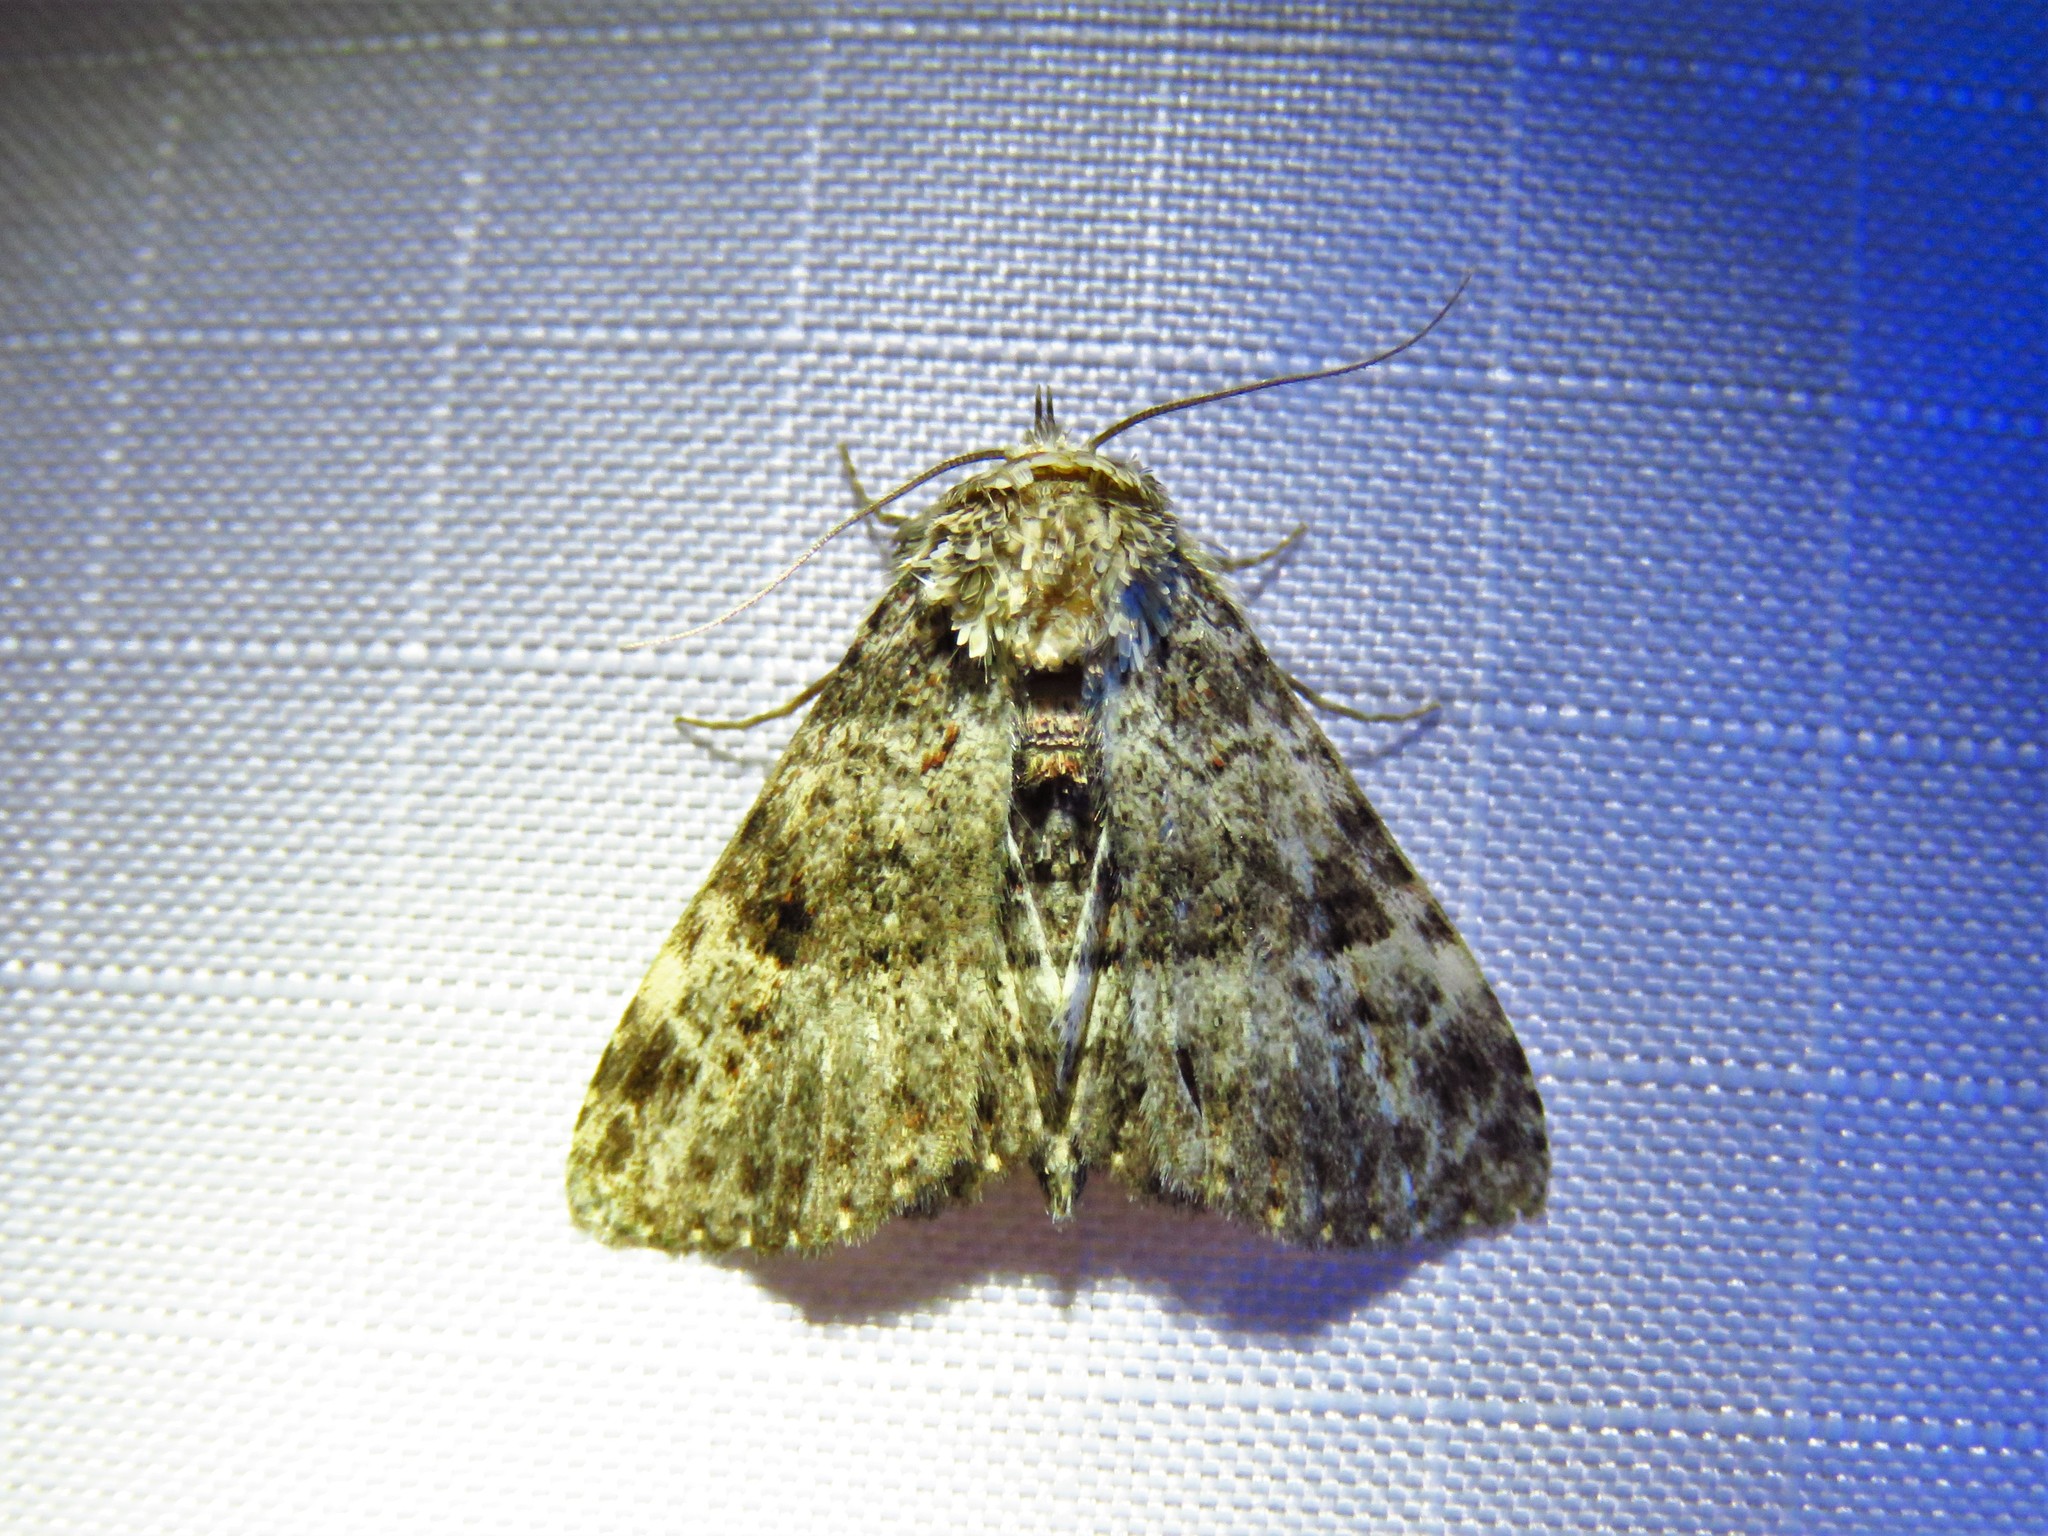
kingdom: Animalia
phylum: Arthropoda
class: Insecta
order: Lepidoptera
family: Erebidae
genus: Metalectra
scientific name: Metalectra discalis
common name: Common fungus moth
